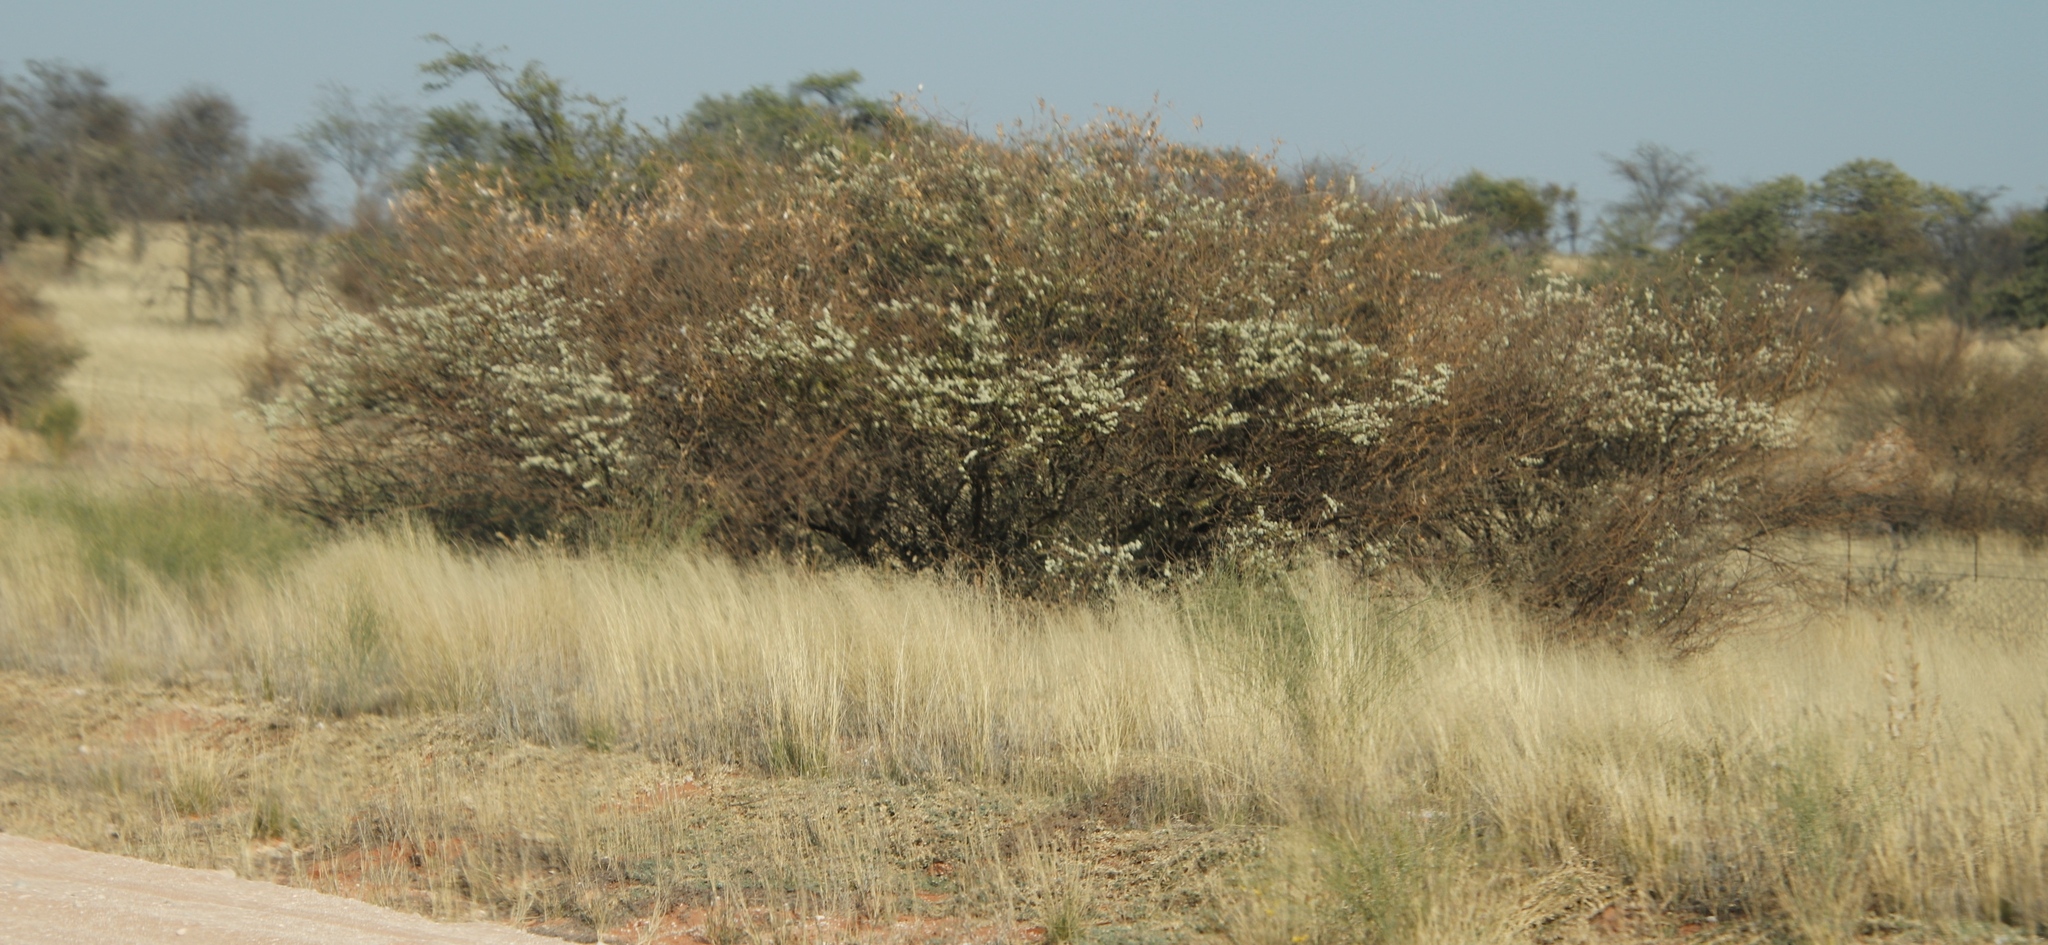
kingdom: Plantae
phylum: Tracheophyta
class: Magnoliopsida
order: Fabales
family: Fabaceae
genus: Senegalia
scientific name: Senegalia mellifera
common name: Hookthorn
